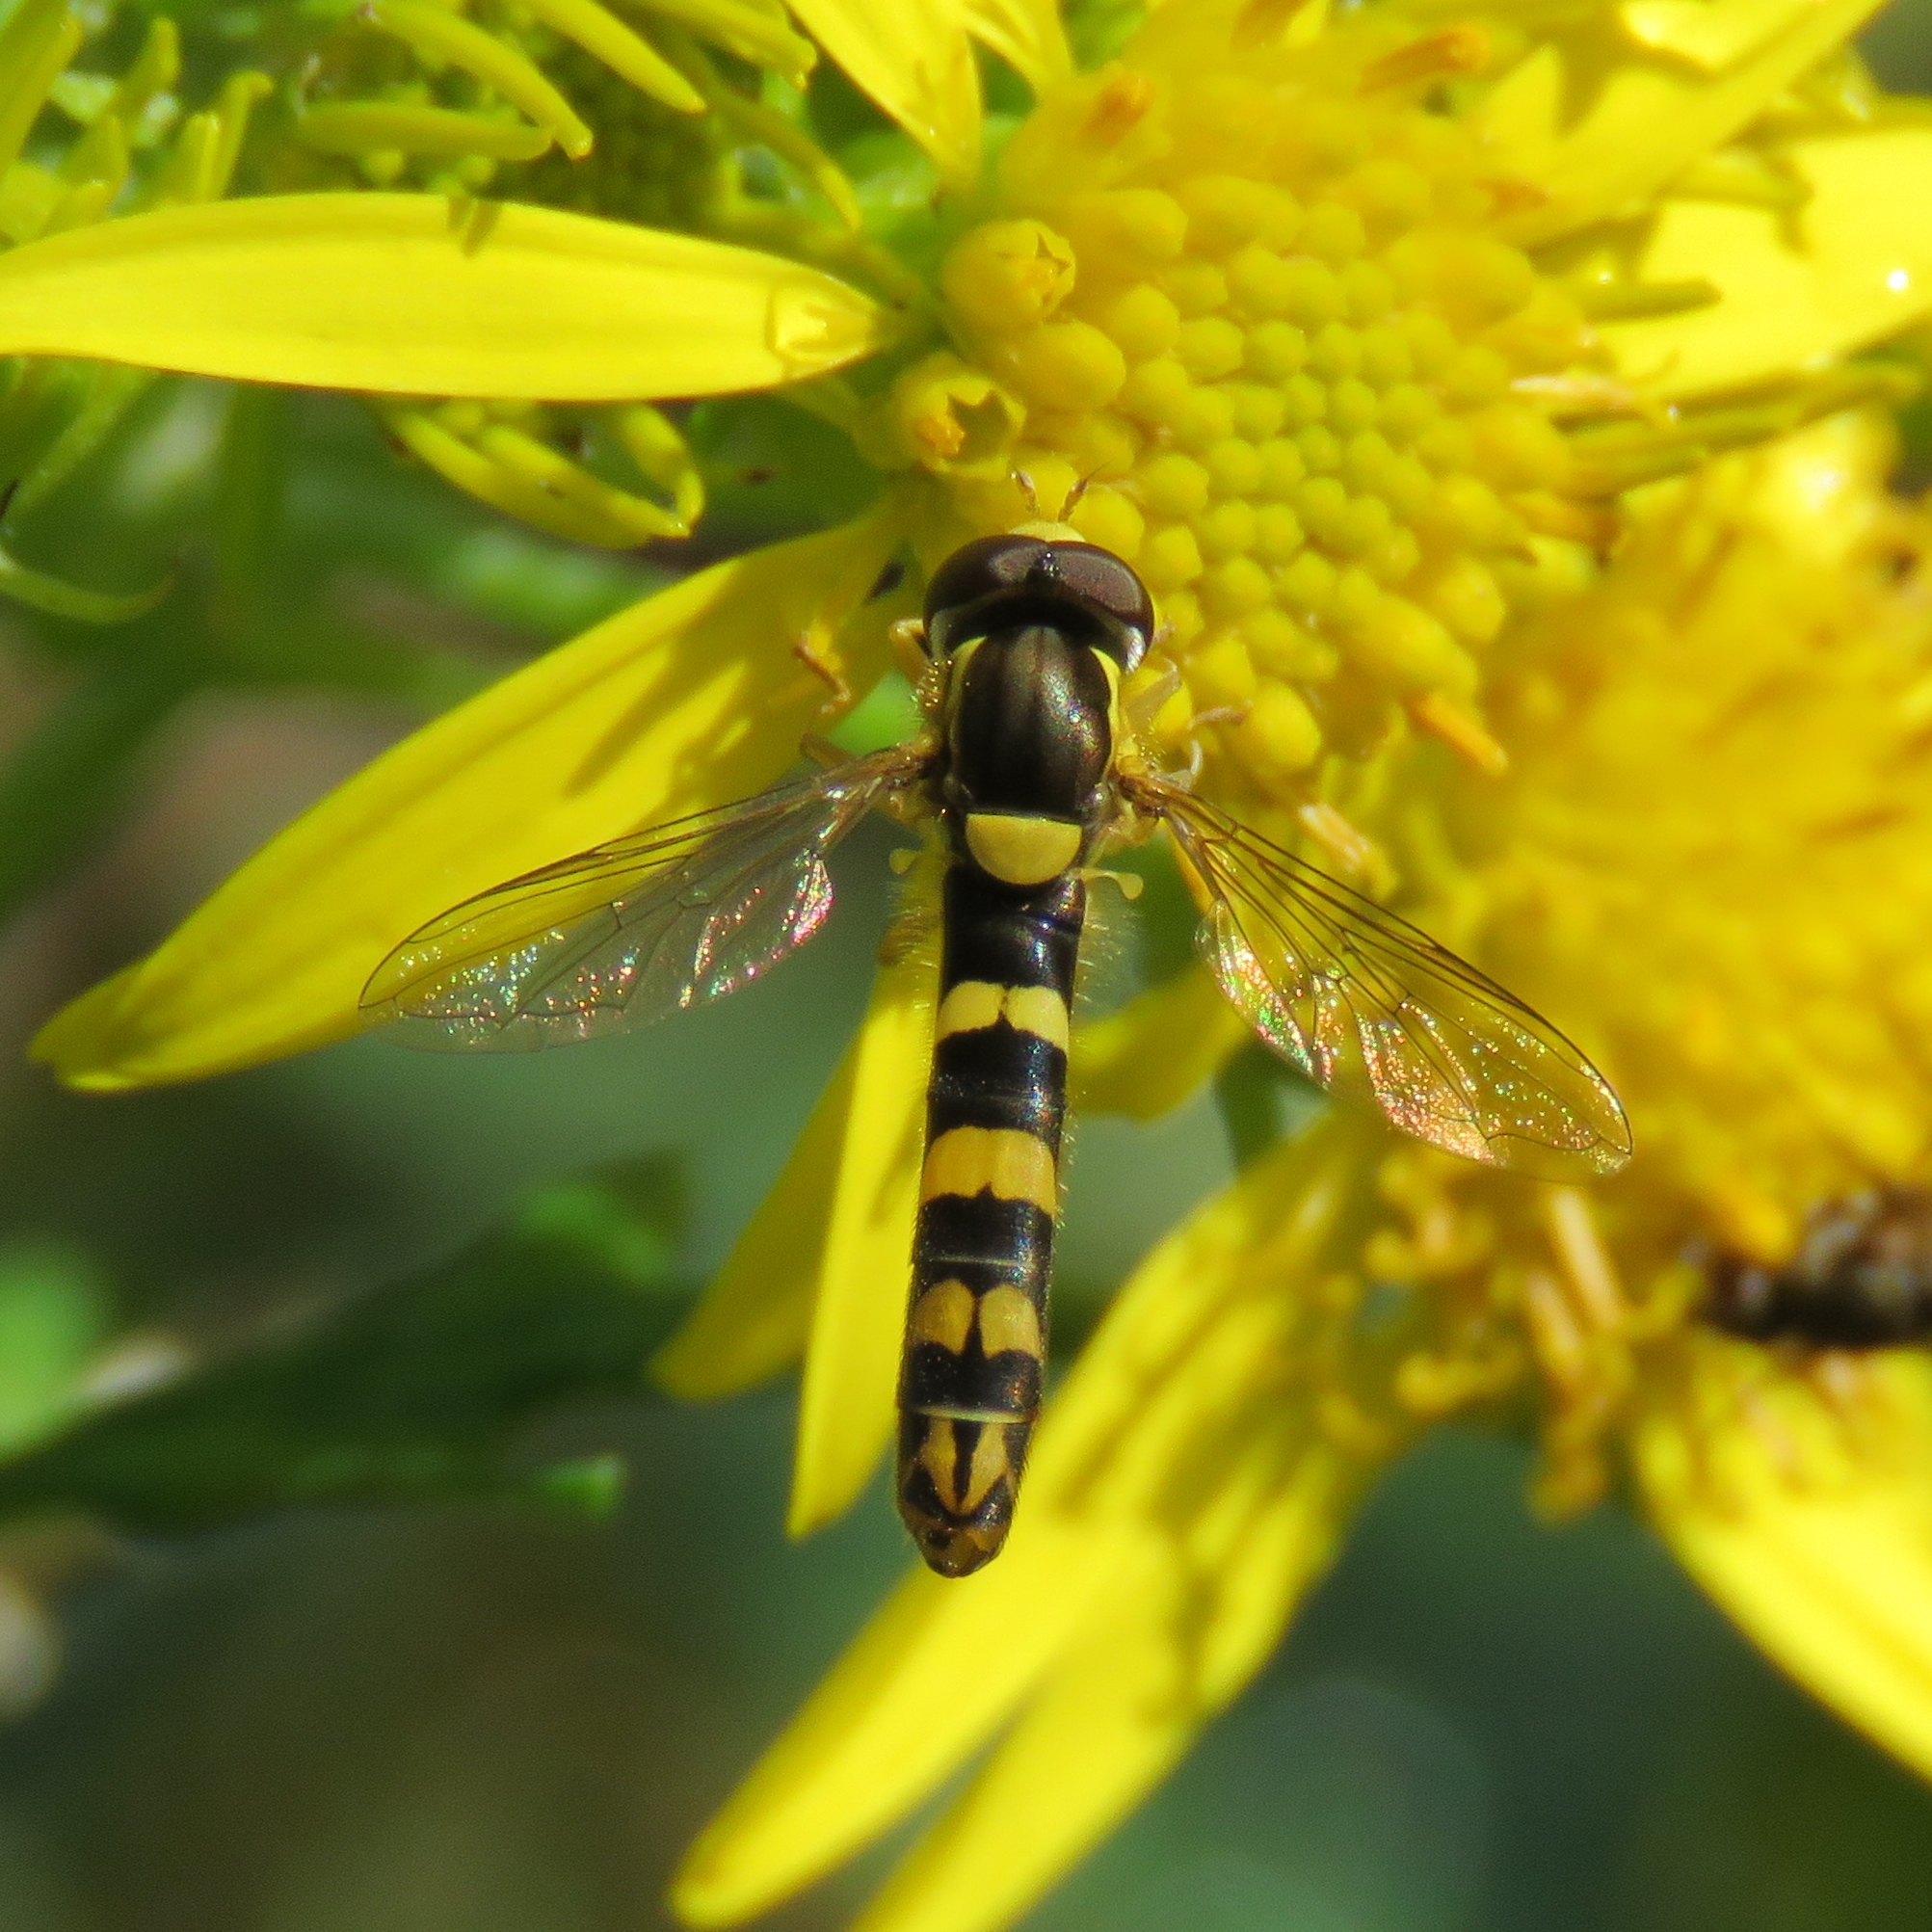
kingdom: Animalia
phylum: Arthropoda
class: Insecta
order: Diptera
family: Syrphidae
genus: Sphaerophoria
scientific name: Sphaerophoria scripta
